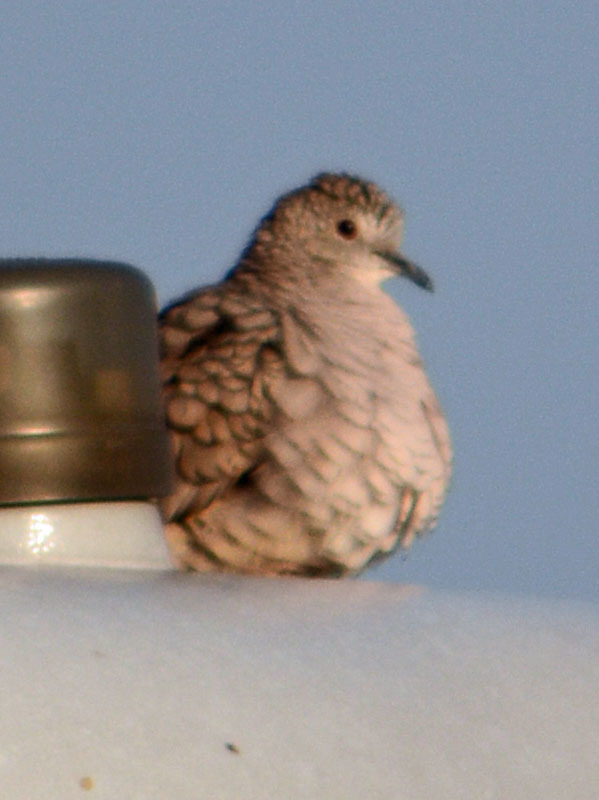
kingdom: Animalia
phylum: Chordata
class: Aves
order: Columbiformes
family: Columbidae
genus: Columbina
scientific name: Columbina inca
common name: Inca dove
